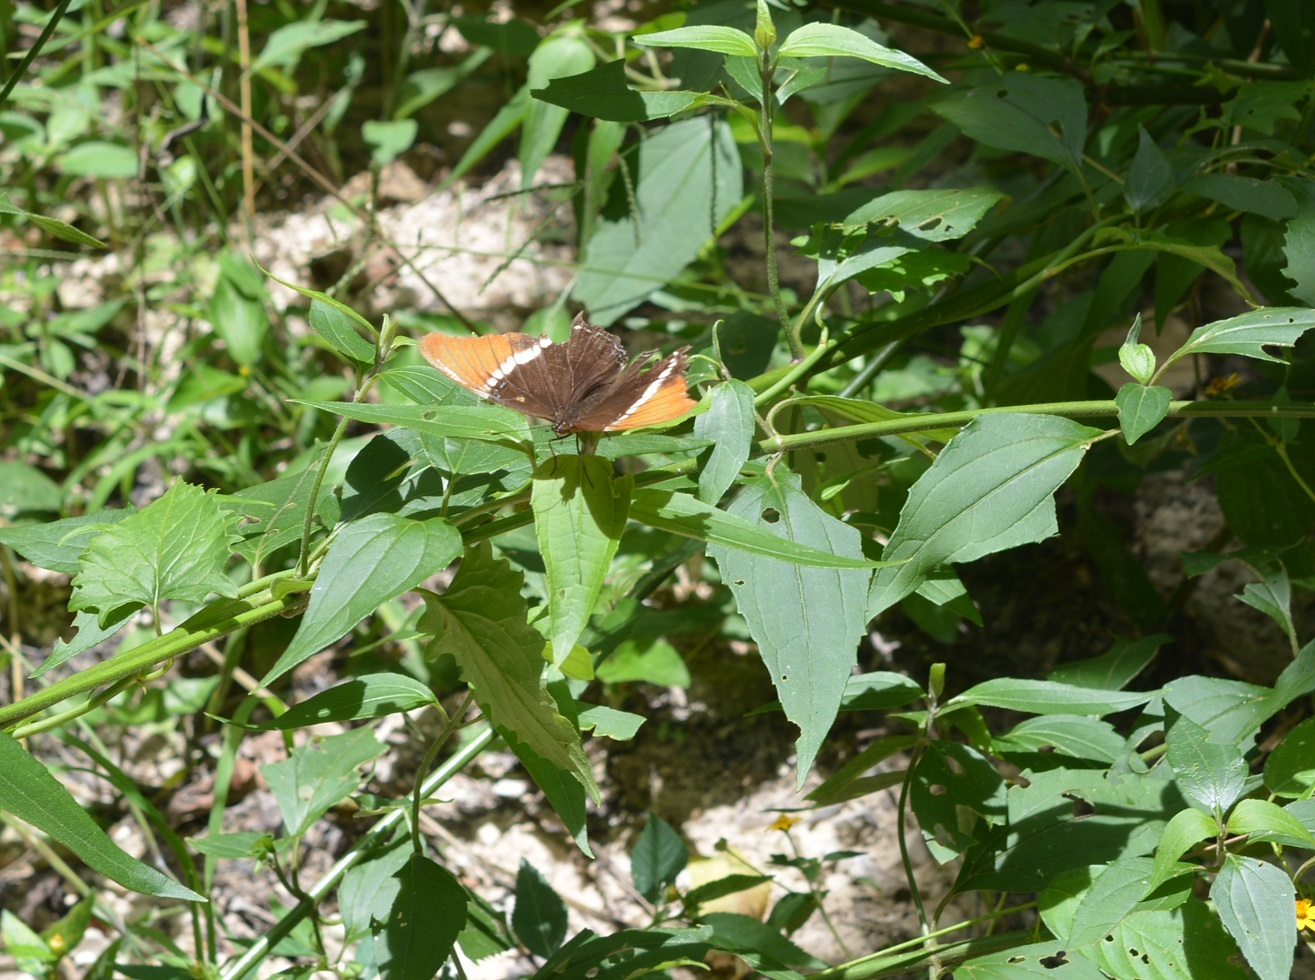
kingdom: Animalia
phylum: Arthropoda
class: Insecta
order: Lepidoptera
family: Nymphalidae
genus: Siproeta
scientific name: Siproeta epaphus
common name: Rusty-tipped page
